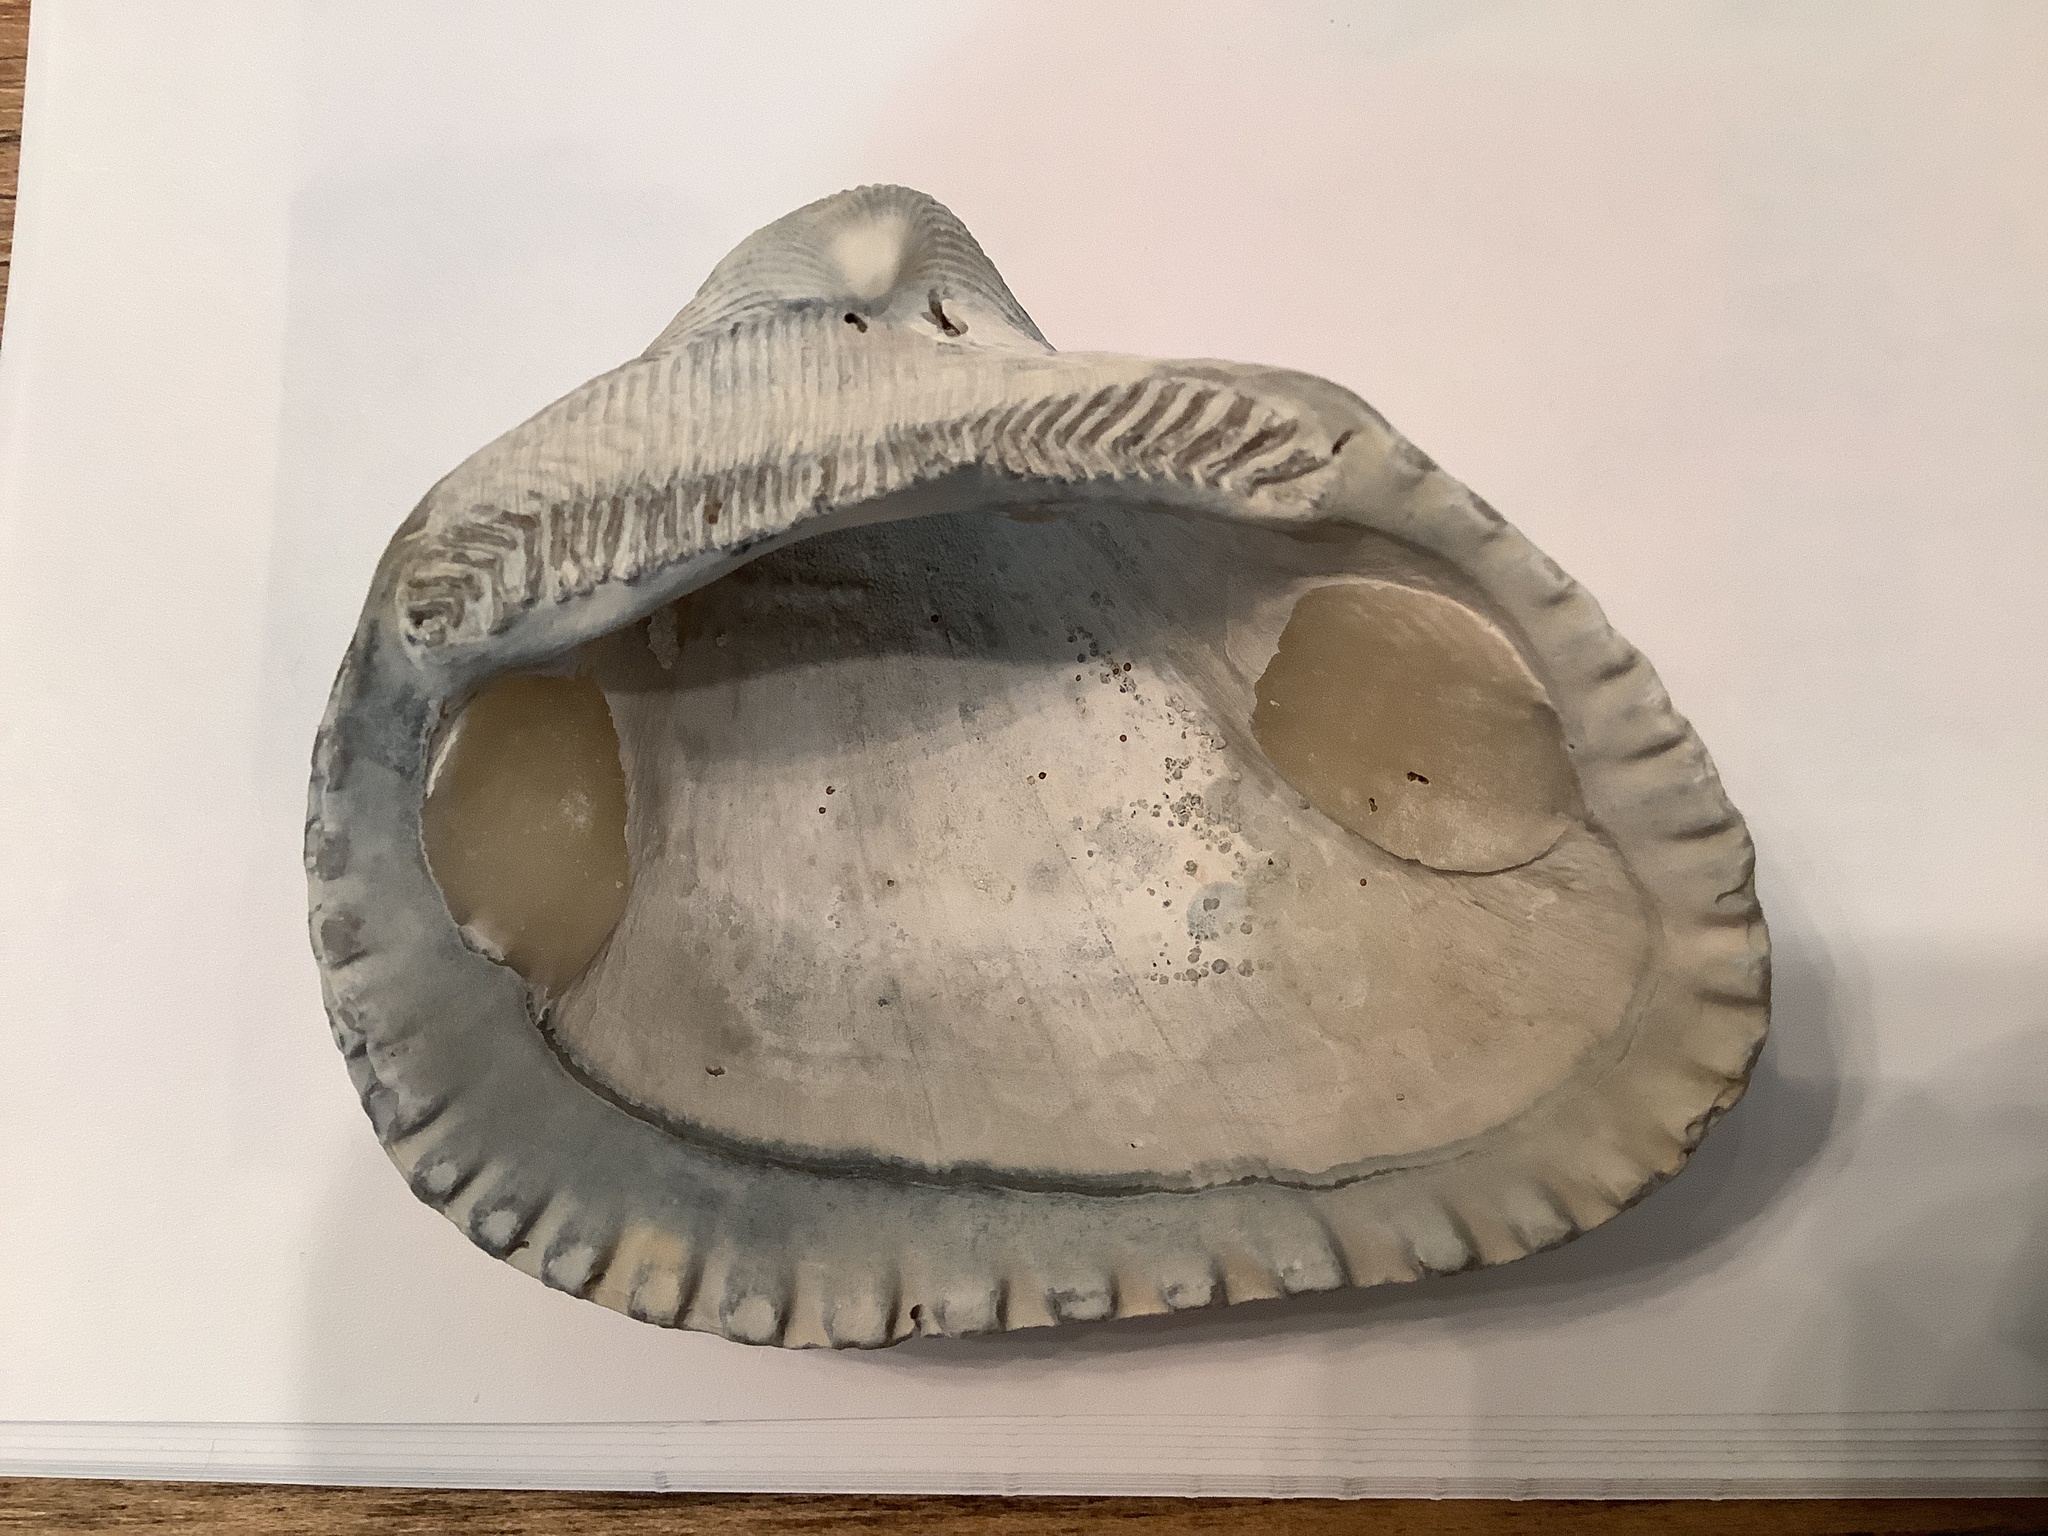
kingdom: Animalia
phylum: Mollusca
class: Bivalvia
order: Arcida
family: Noetiidae
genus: Noetia
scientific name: Noetia ponderosa
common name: Ponderous ark
